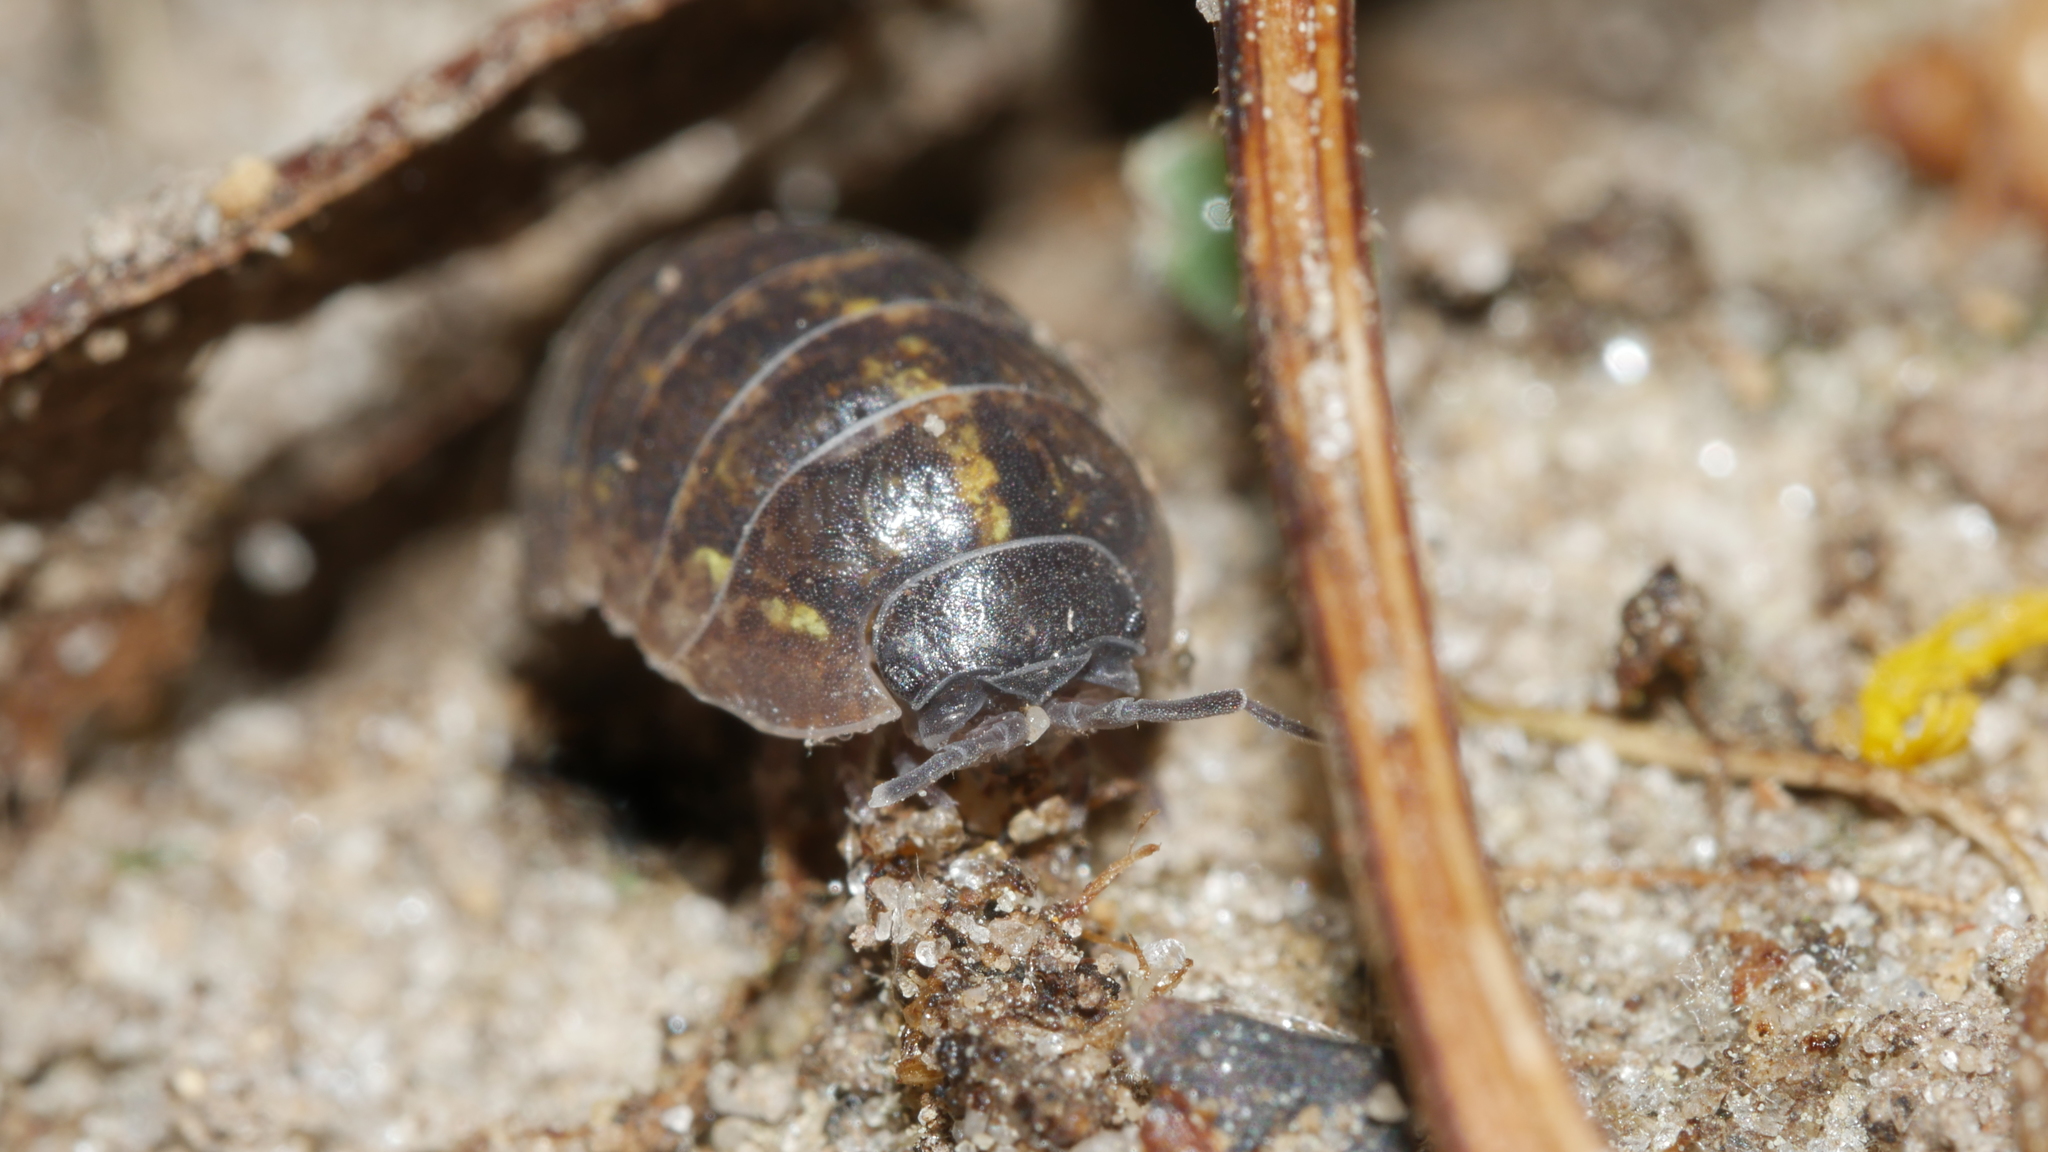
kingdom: Animalia
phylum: Arthropoda
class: Malacostraca
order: Isopoda
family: Armadillidiidae
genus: Armadillidium
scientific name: Armadillidium vulgare
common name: Common pill woodlouse
